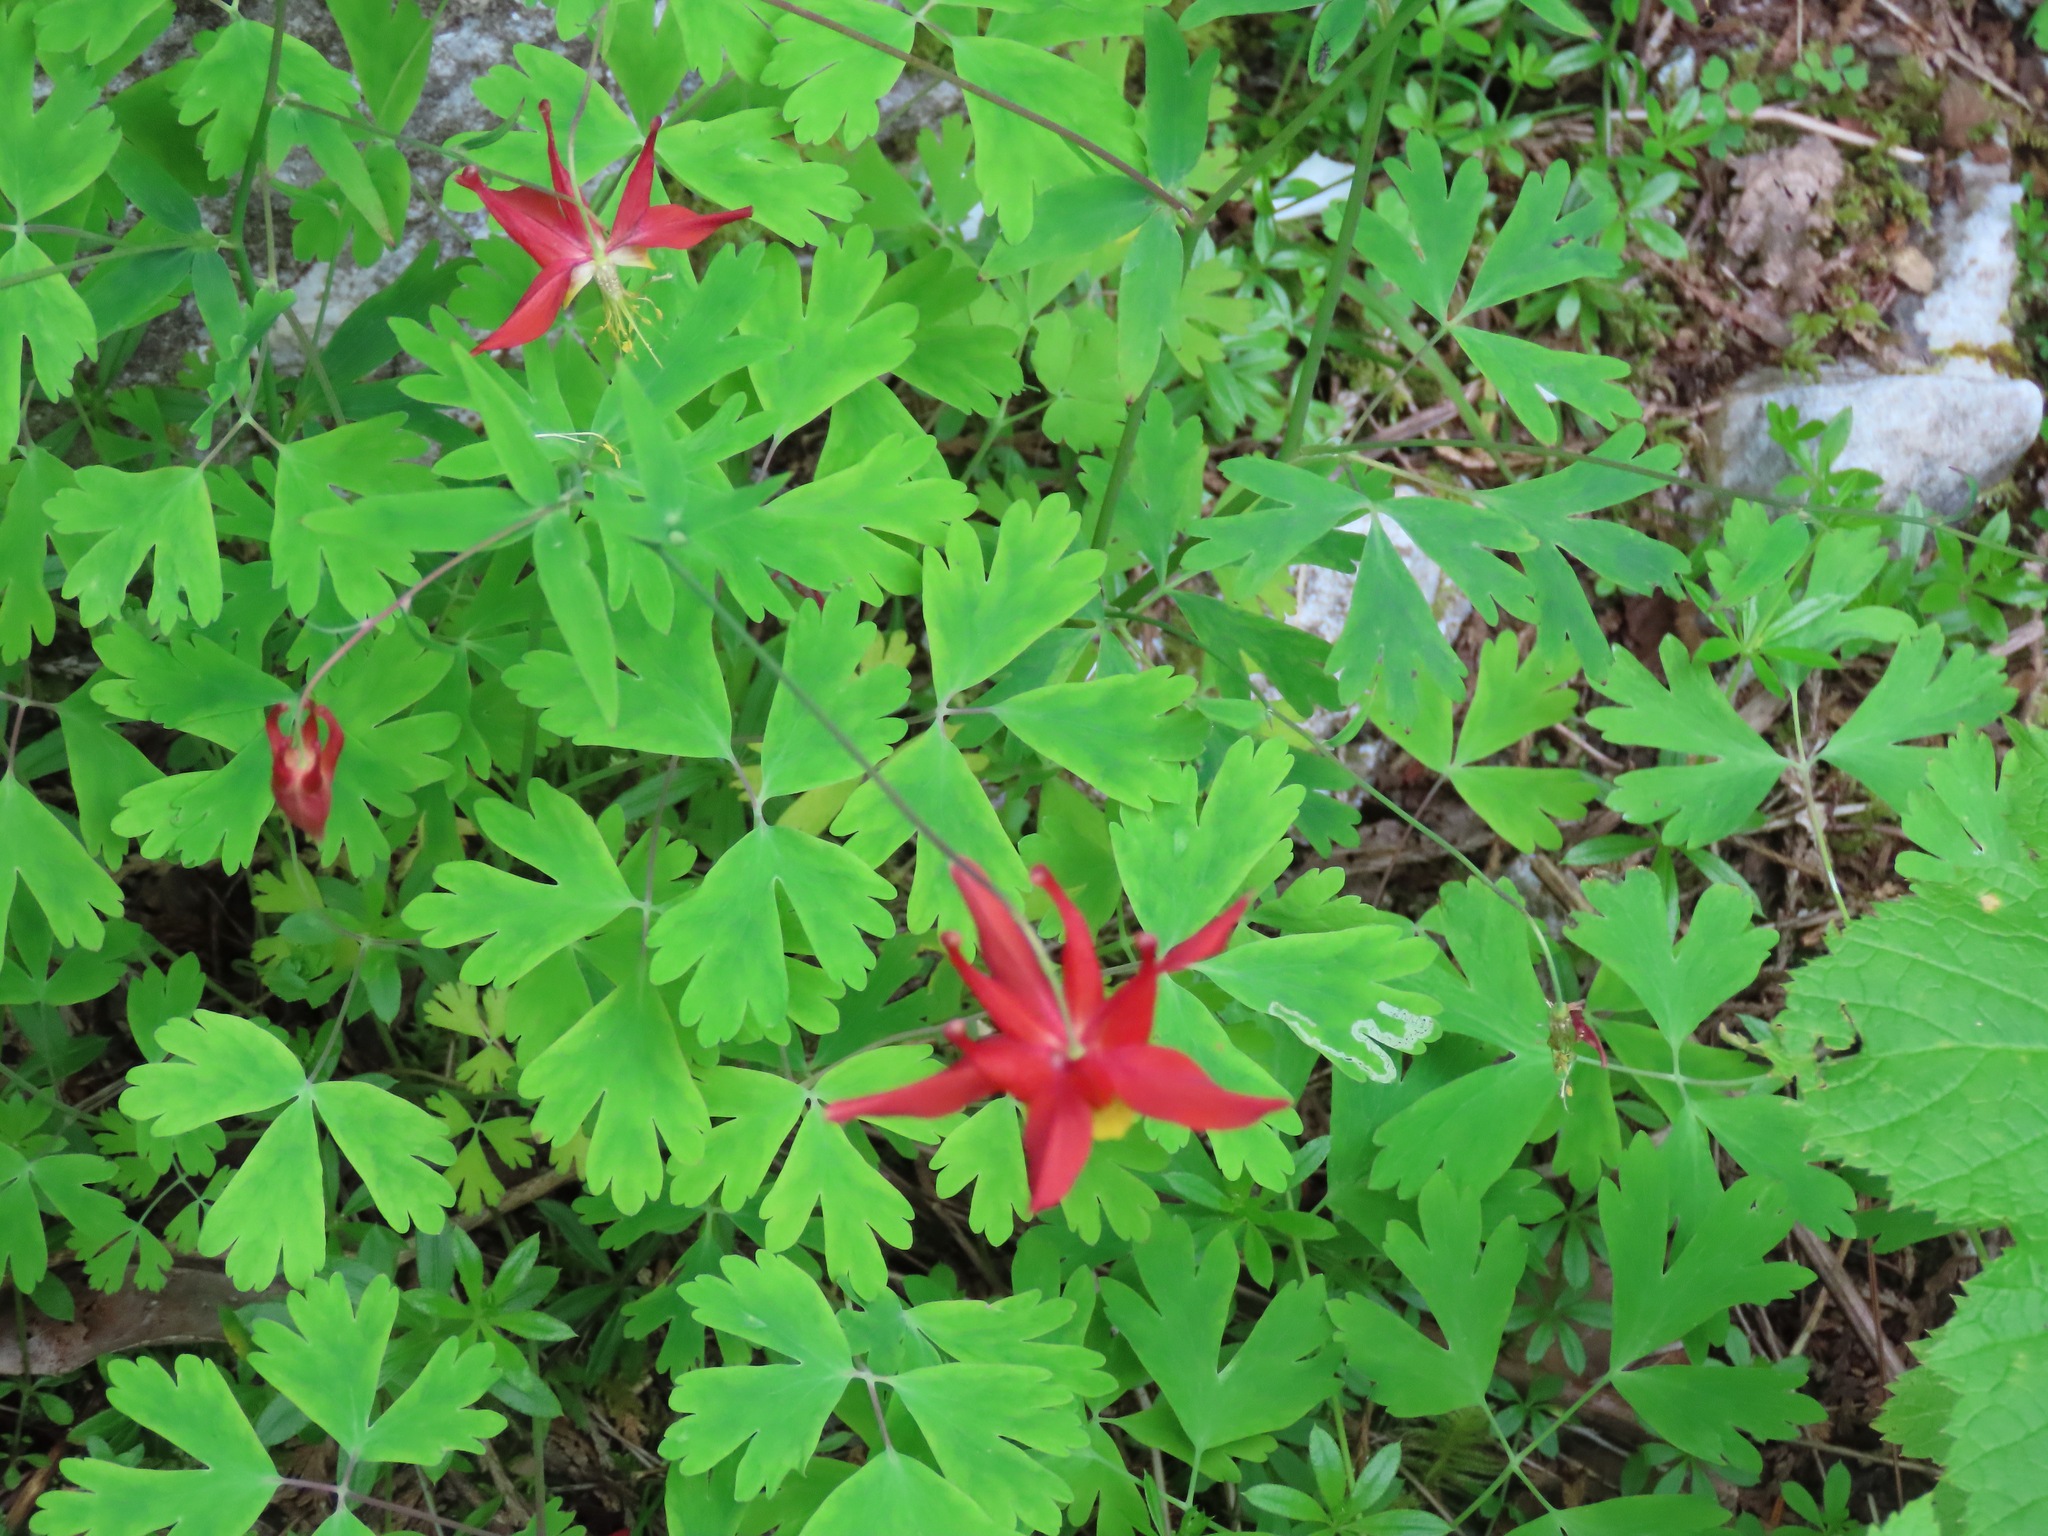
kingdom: Plantae
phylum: Tracheophyta
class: Magnoliopsida
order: Ranunculales
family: Ranunculaceae
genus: Aquilegia
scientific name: Aquilegia formosa
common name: Sitka columbine
